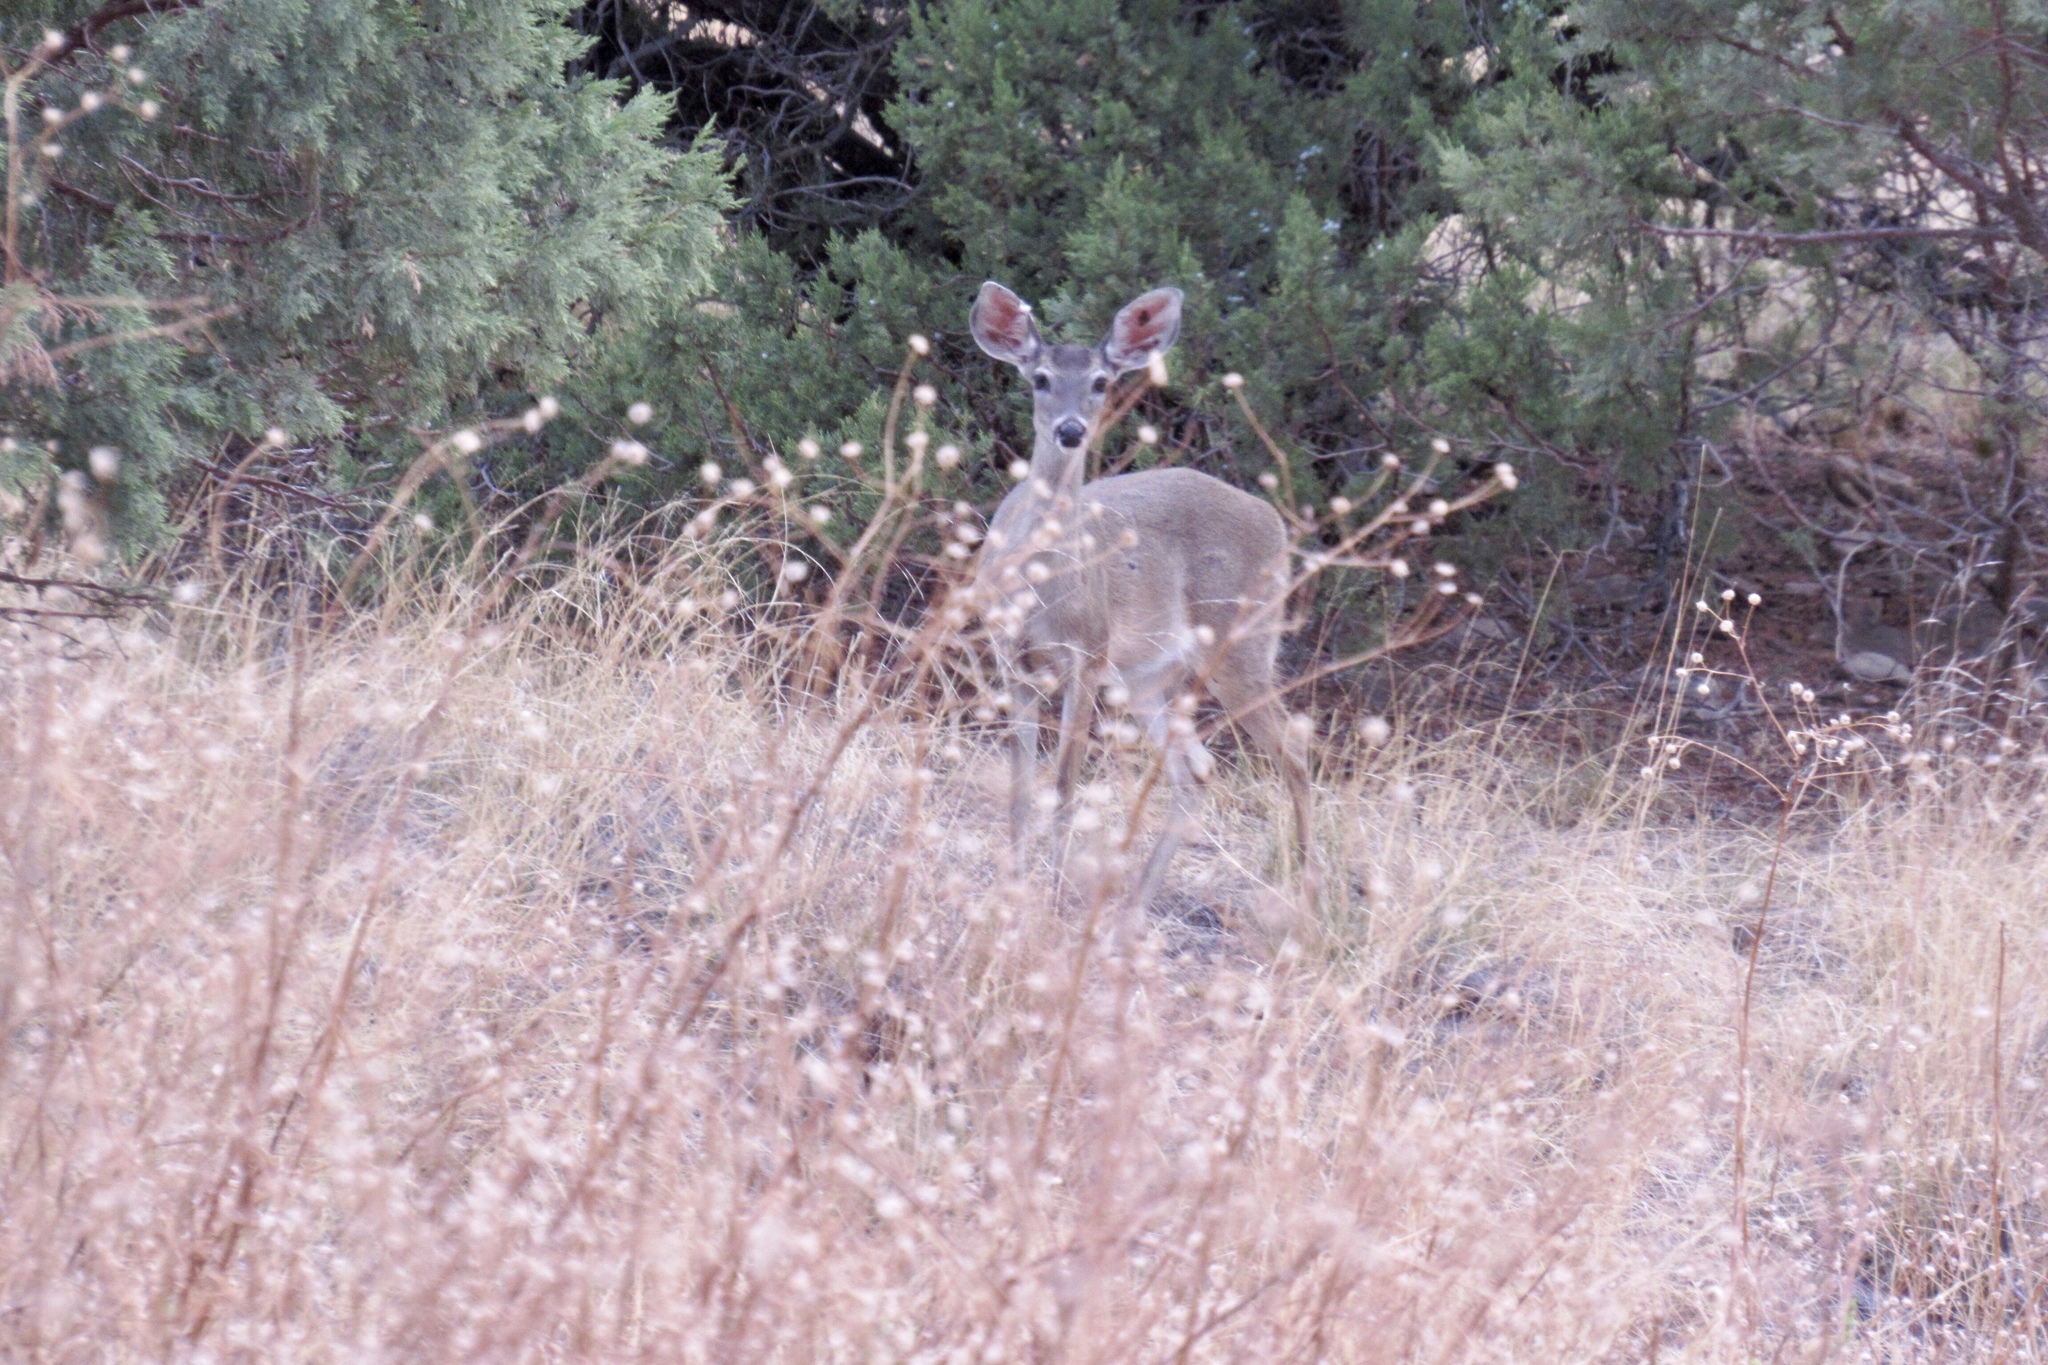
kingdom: Animalia
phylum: Chordata
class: Mammalia
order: Artiodactyla
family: Cervidae
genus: Odocoileus
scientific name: Odocoileus virginianus
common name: White-tailed deer
